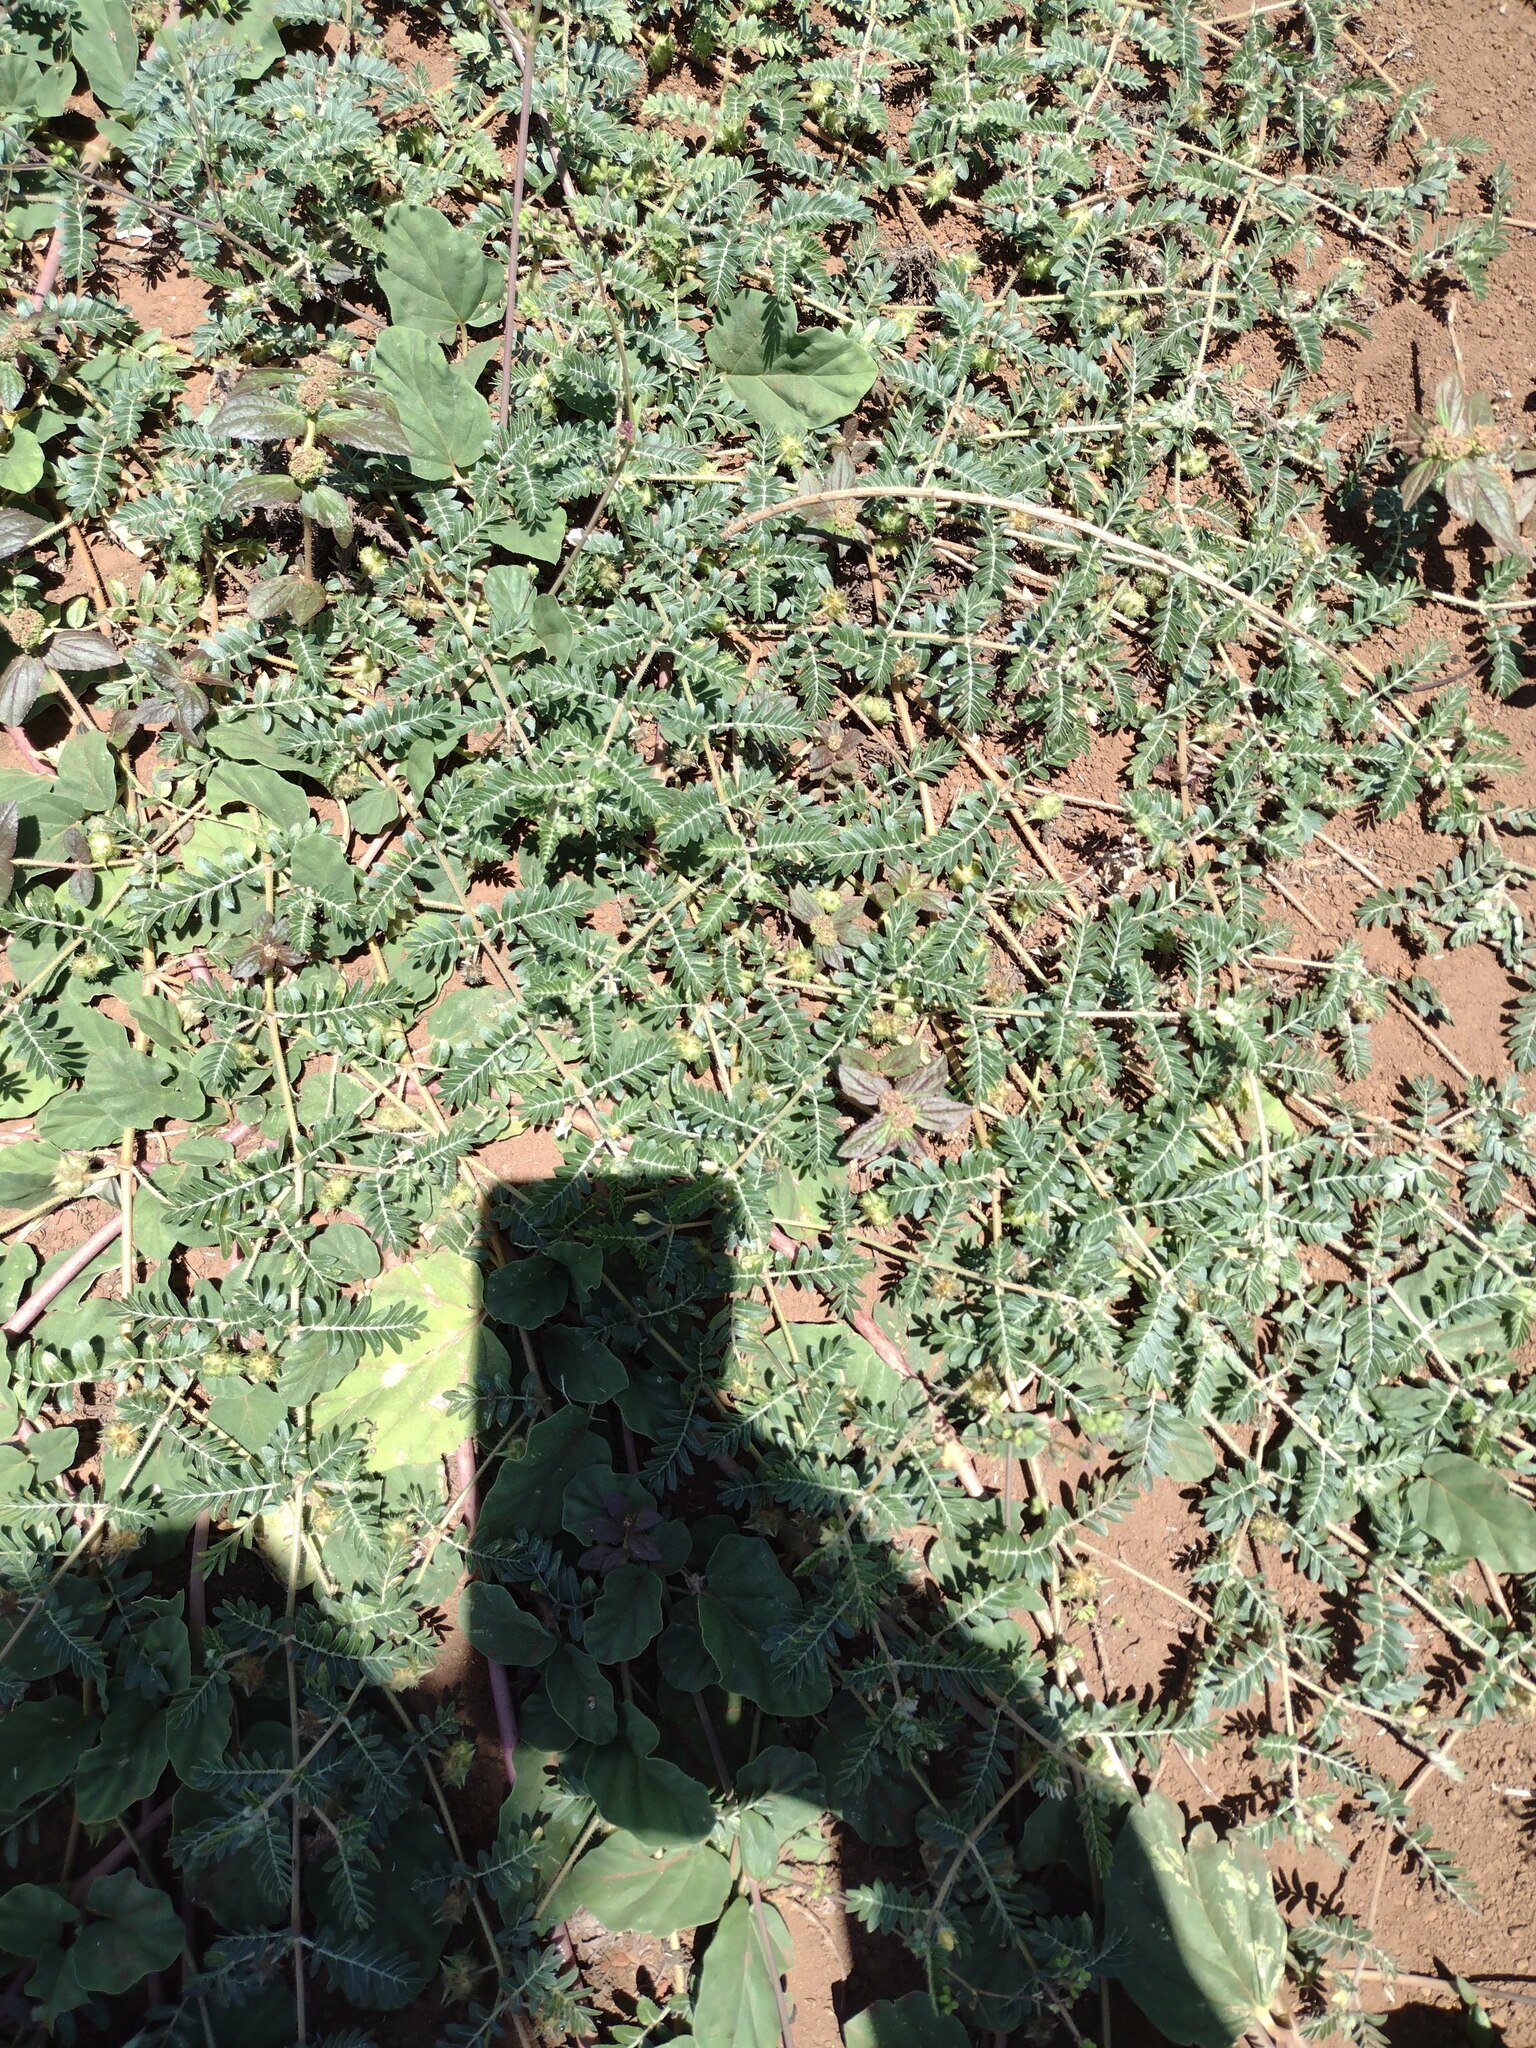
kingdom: Plantae
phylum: Tracheophyta
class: Magnoliopsida
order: Zygophyllales
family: Zygophyllaceae
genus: Tribulus
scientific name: Tribulus terrestris
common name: Puncturevine
